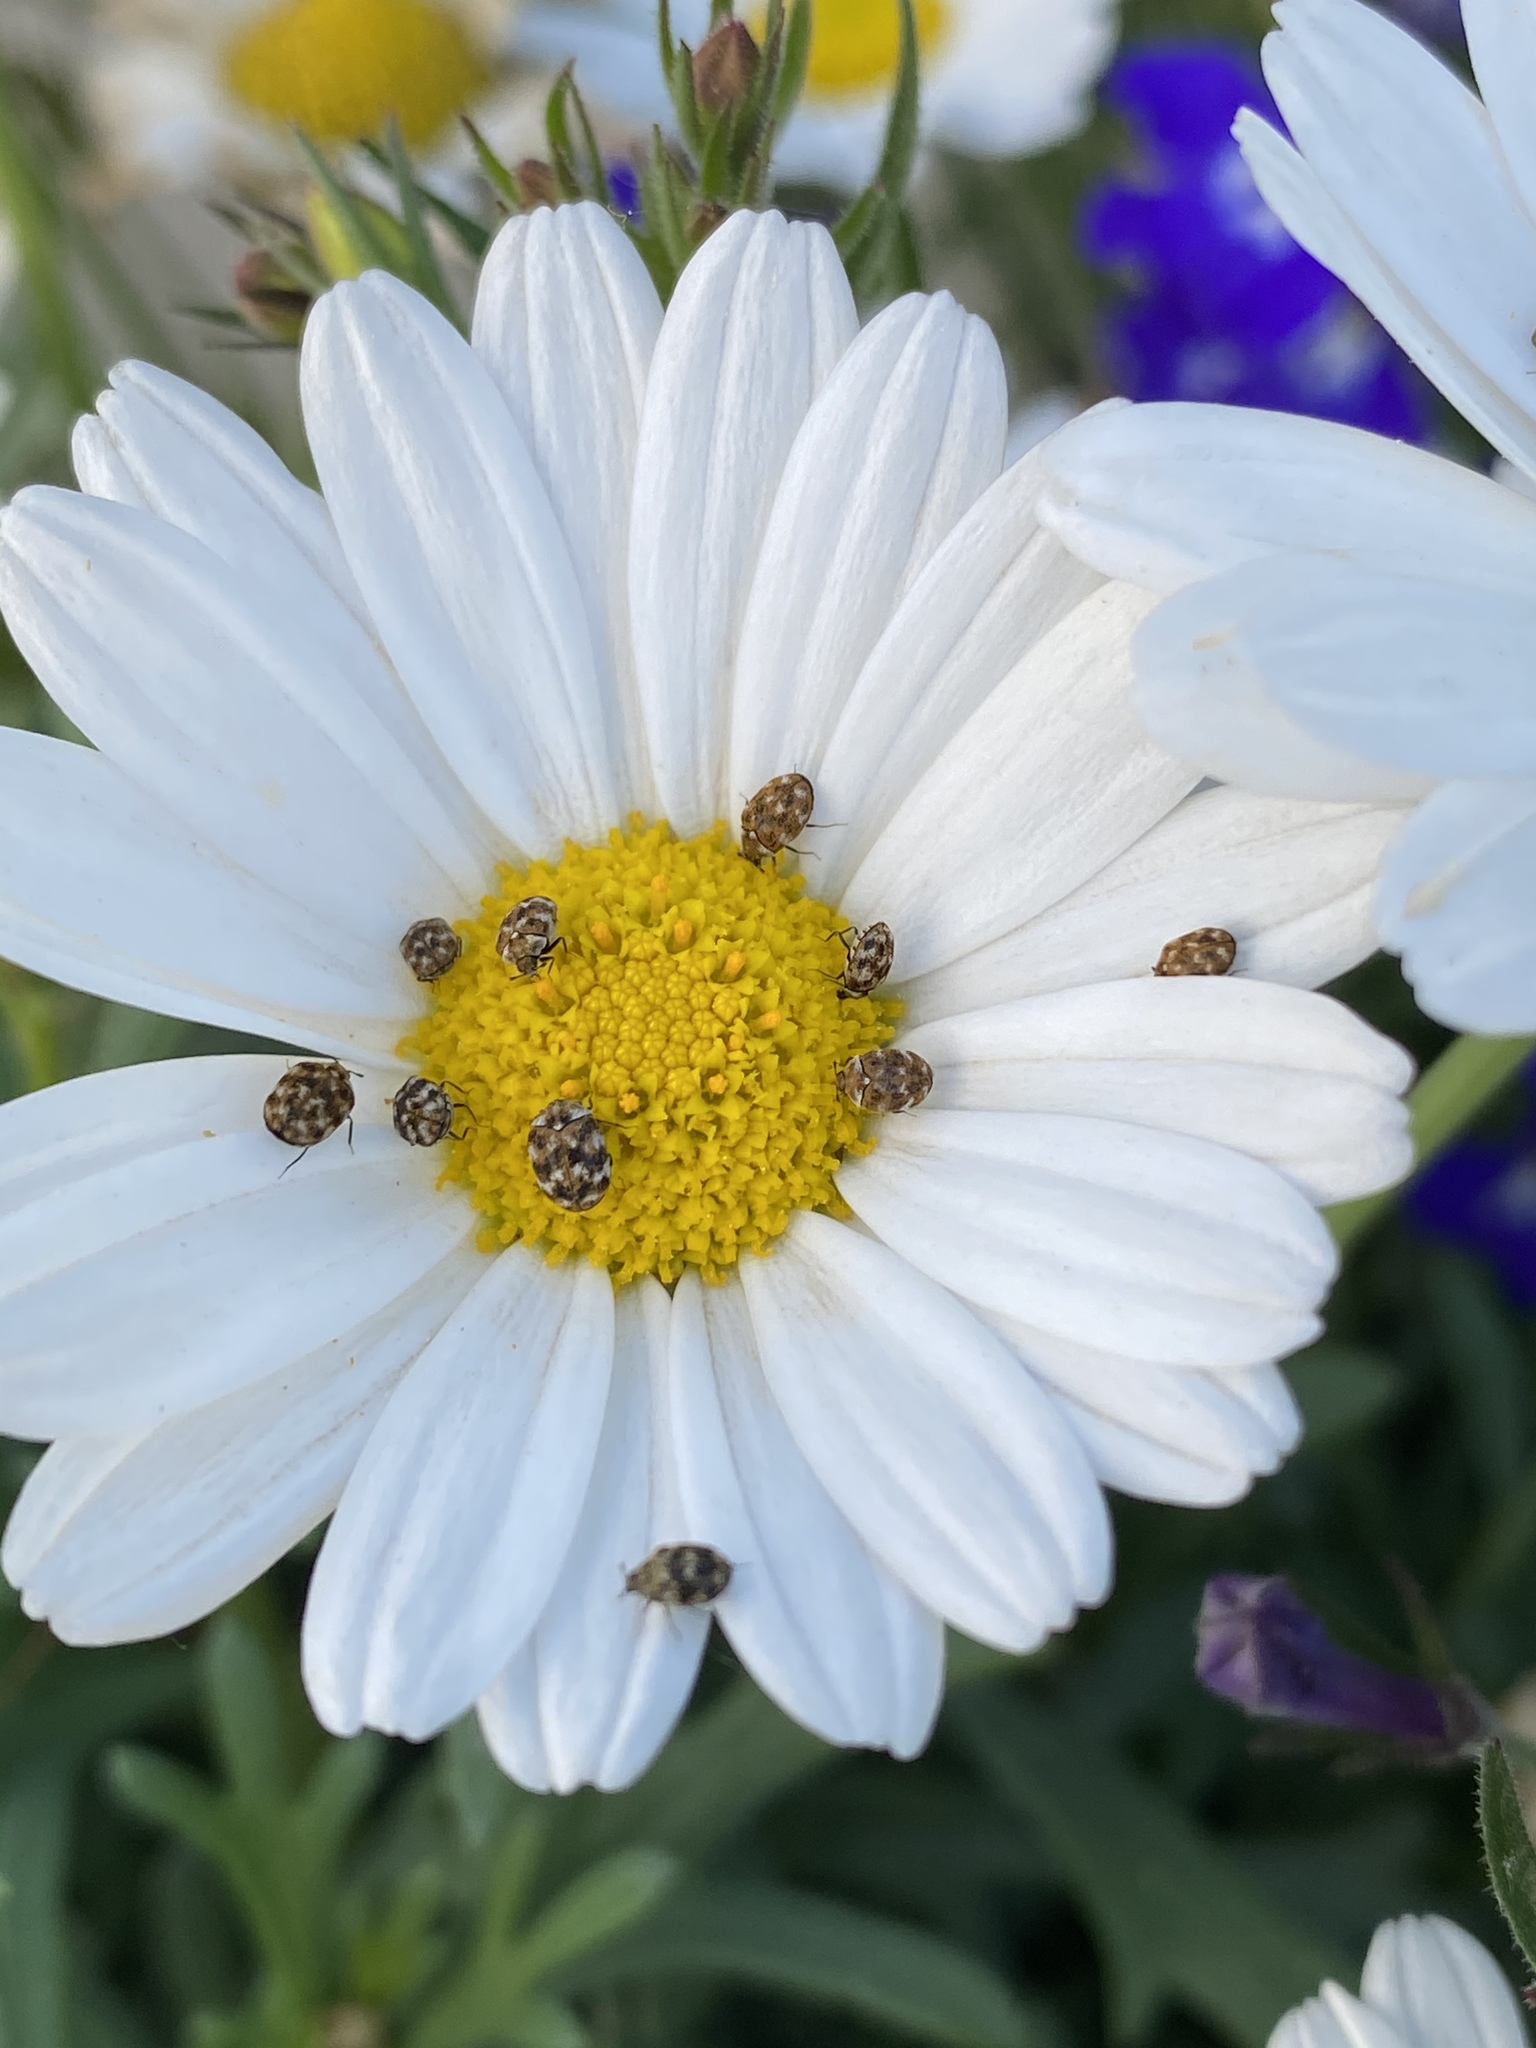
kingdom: Animalia
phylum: Arthropoda
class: Insecta
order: Coleoptera
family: Dermestidae
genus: Anthrenus
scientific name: Anthrenus verbasci
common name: Varied carpet beetle
